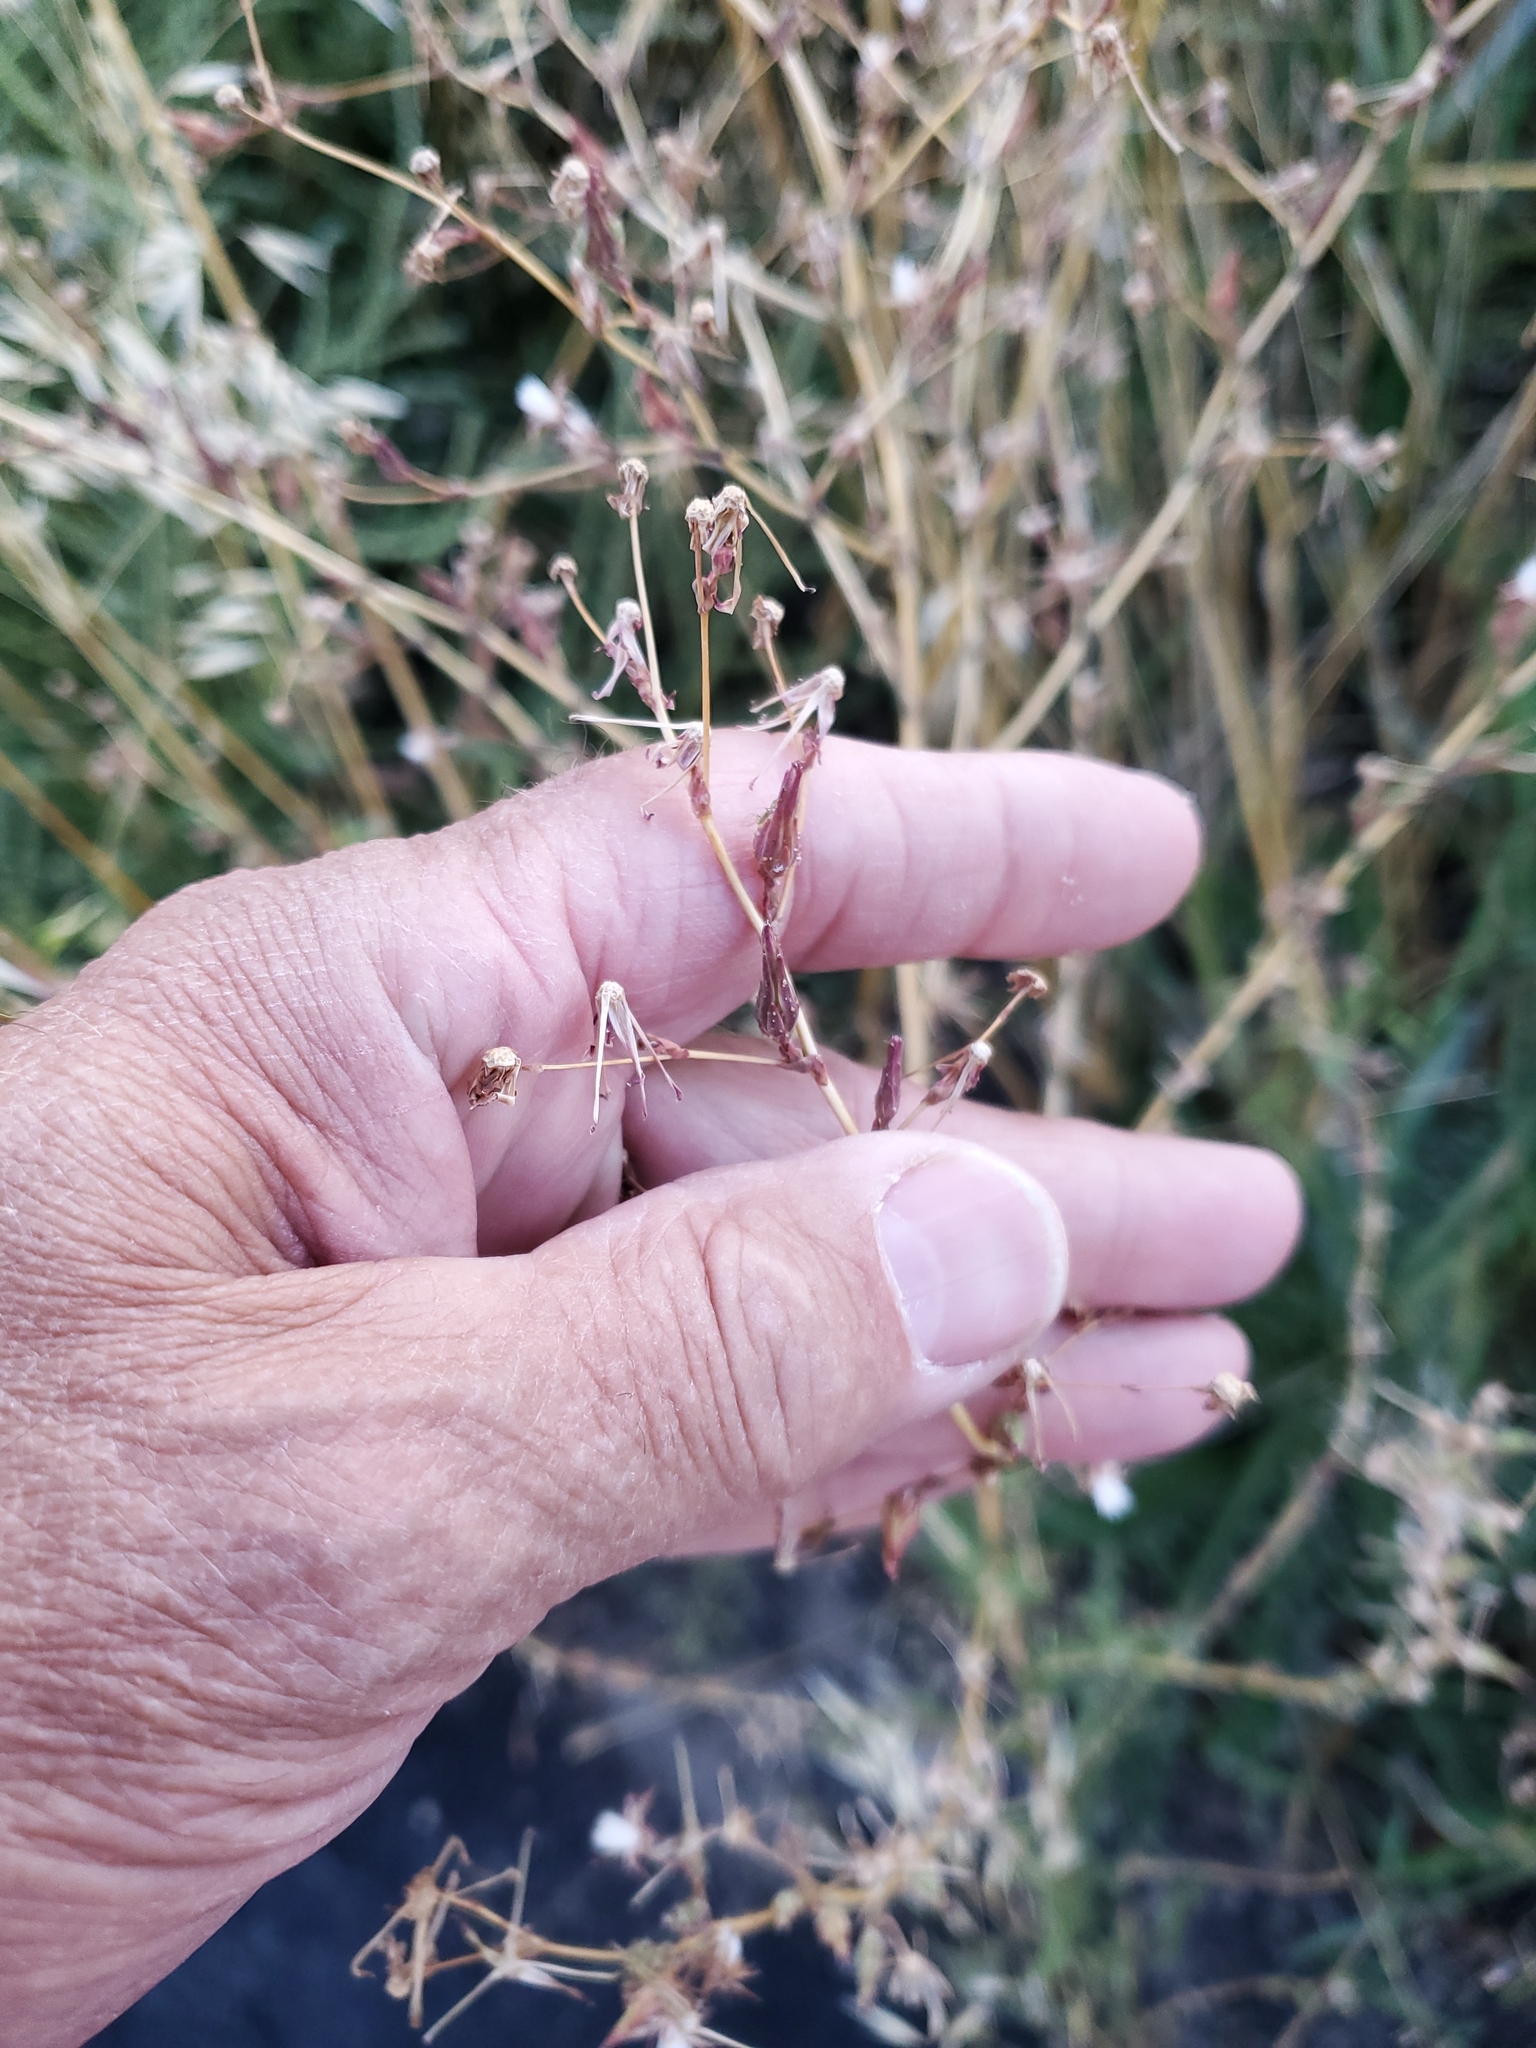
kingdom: Plantae
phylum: Tracheophyta
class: Magnoliopsida
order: Asterales
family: Asteraceae
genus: Lactuca
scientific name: Lactuca serriola
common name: Prickly lettuce
